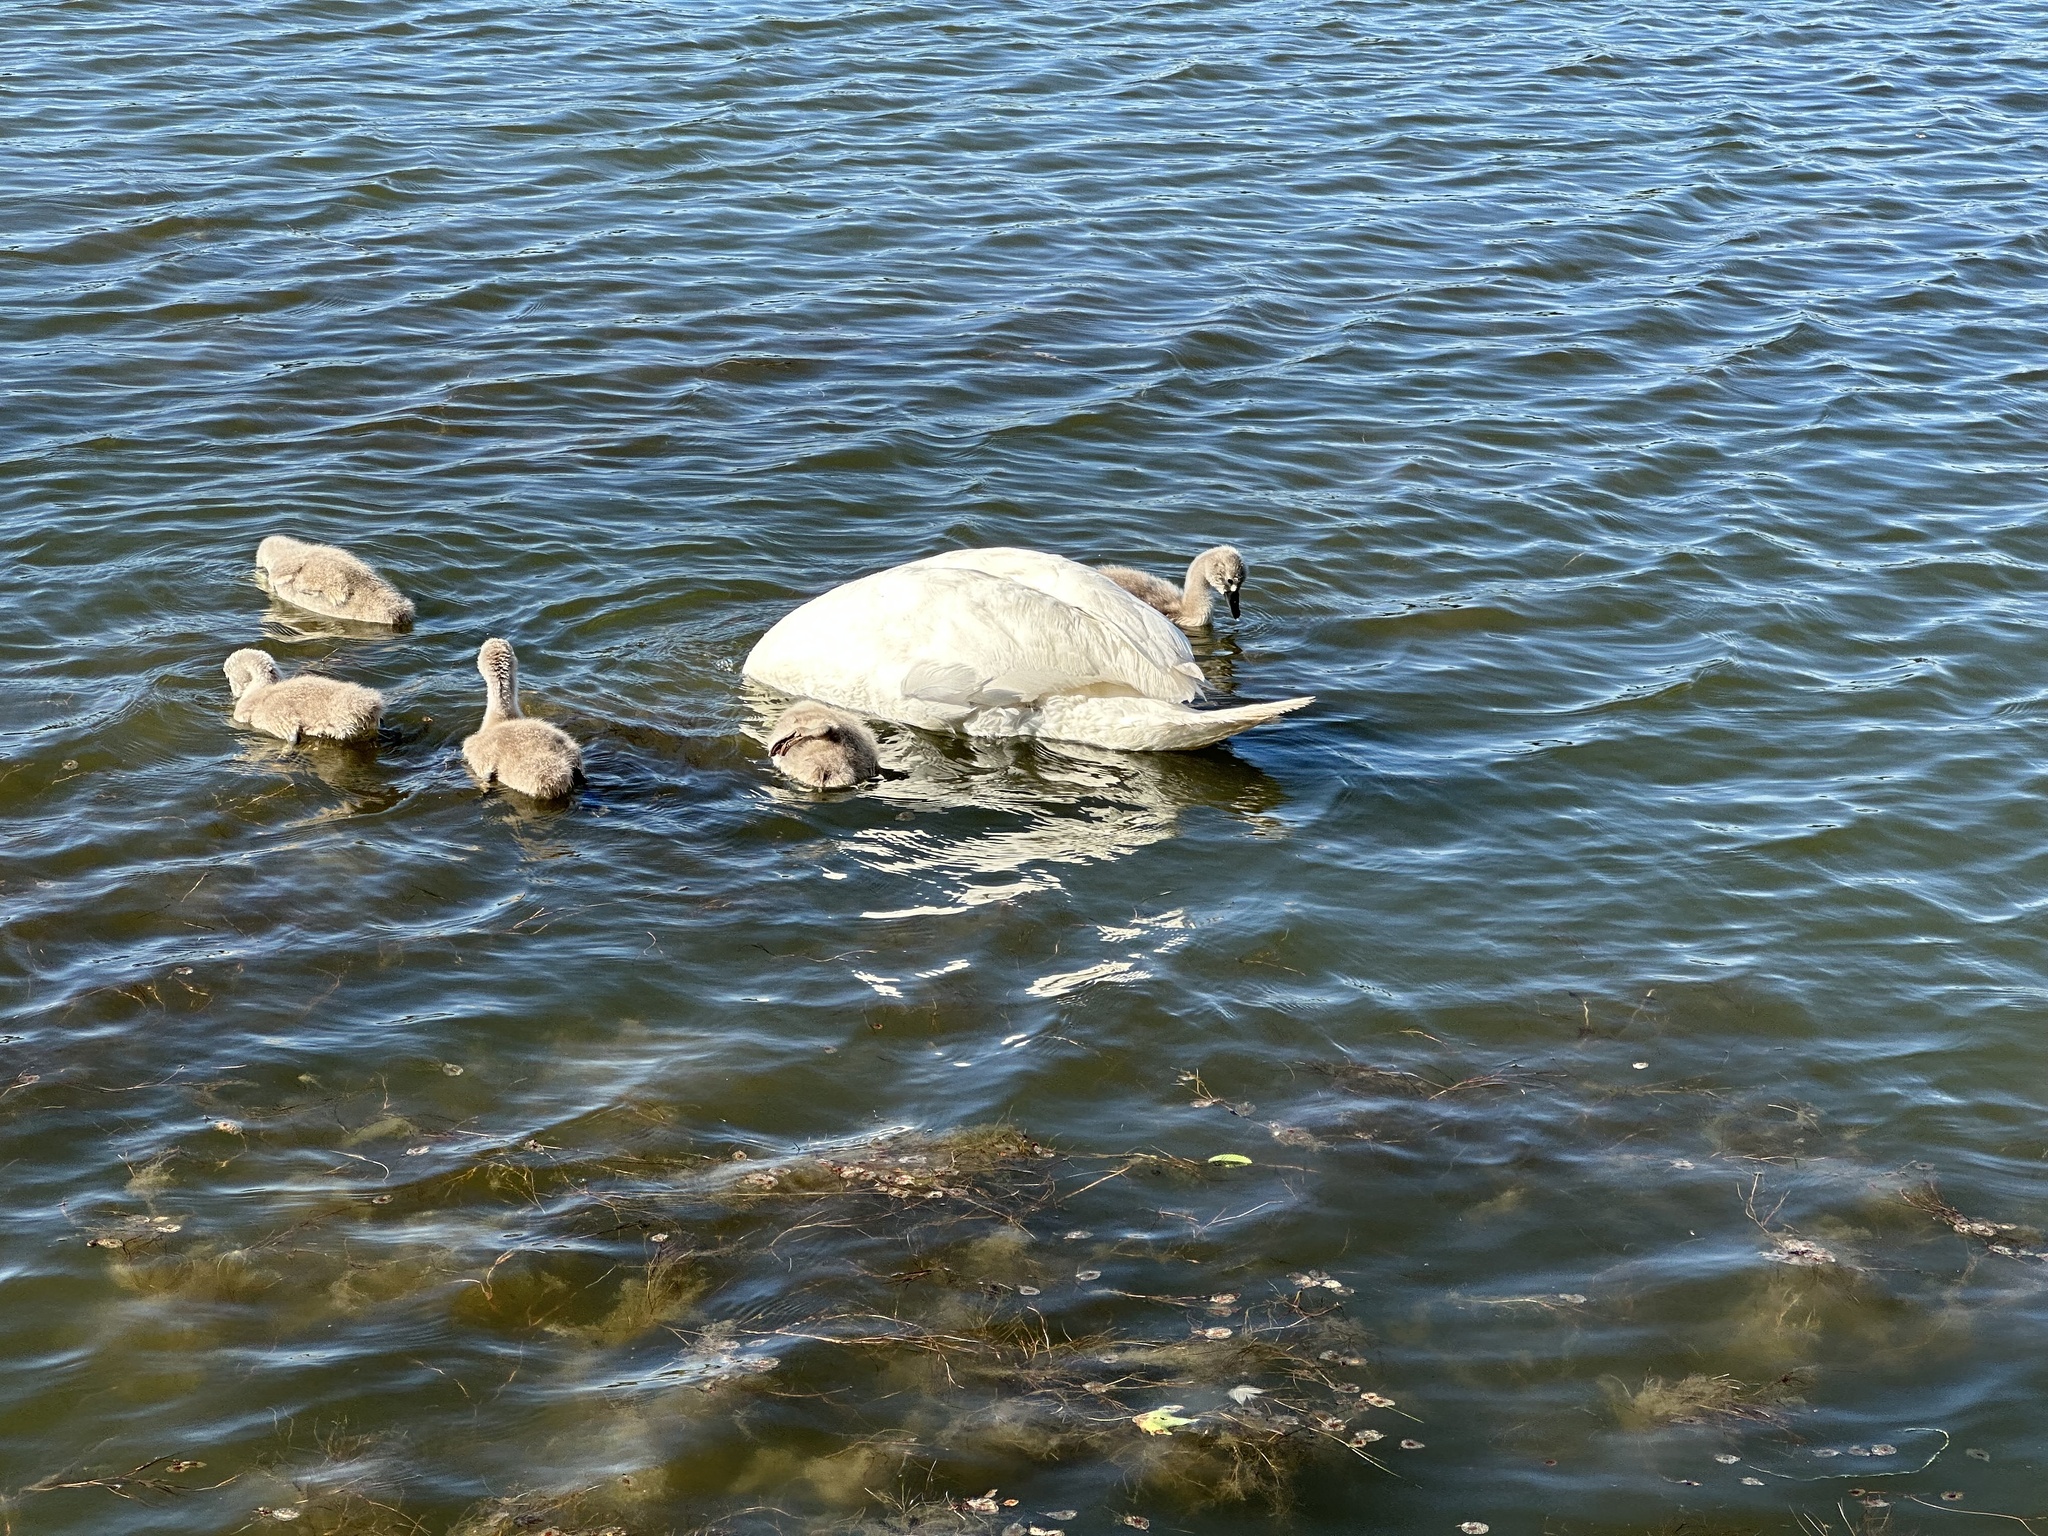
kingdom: Animalia
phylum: Chordata
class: Aves
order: Anseriformes
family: Anatidae
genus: Cygnus
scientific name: Cygnus olor
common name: Mute swan
